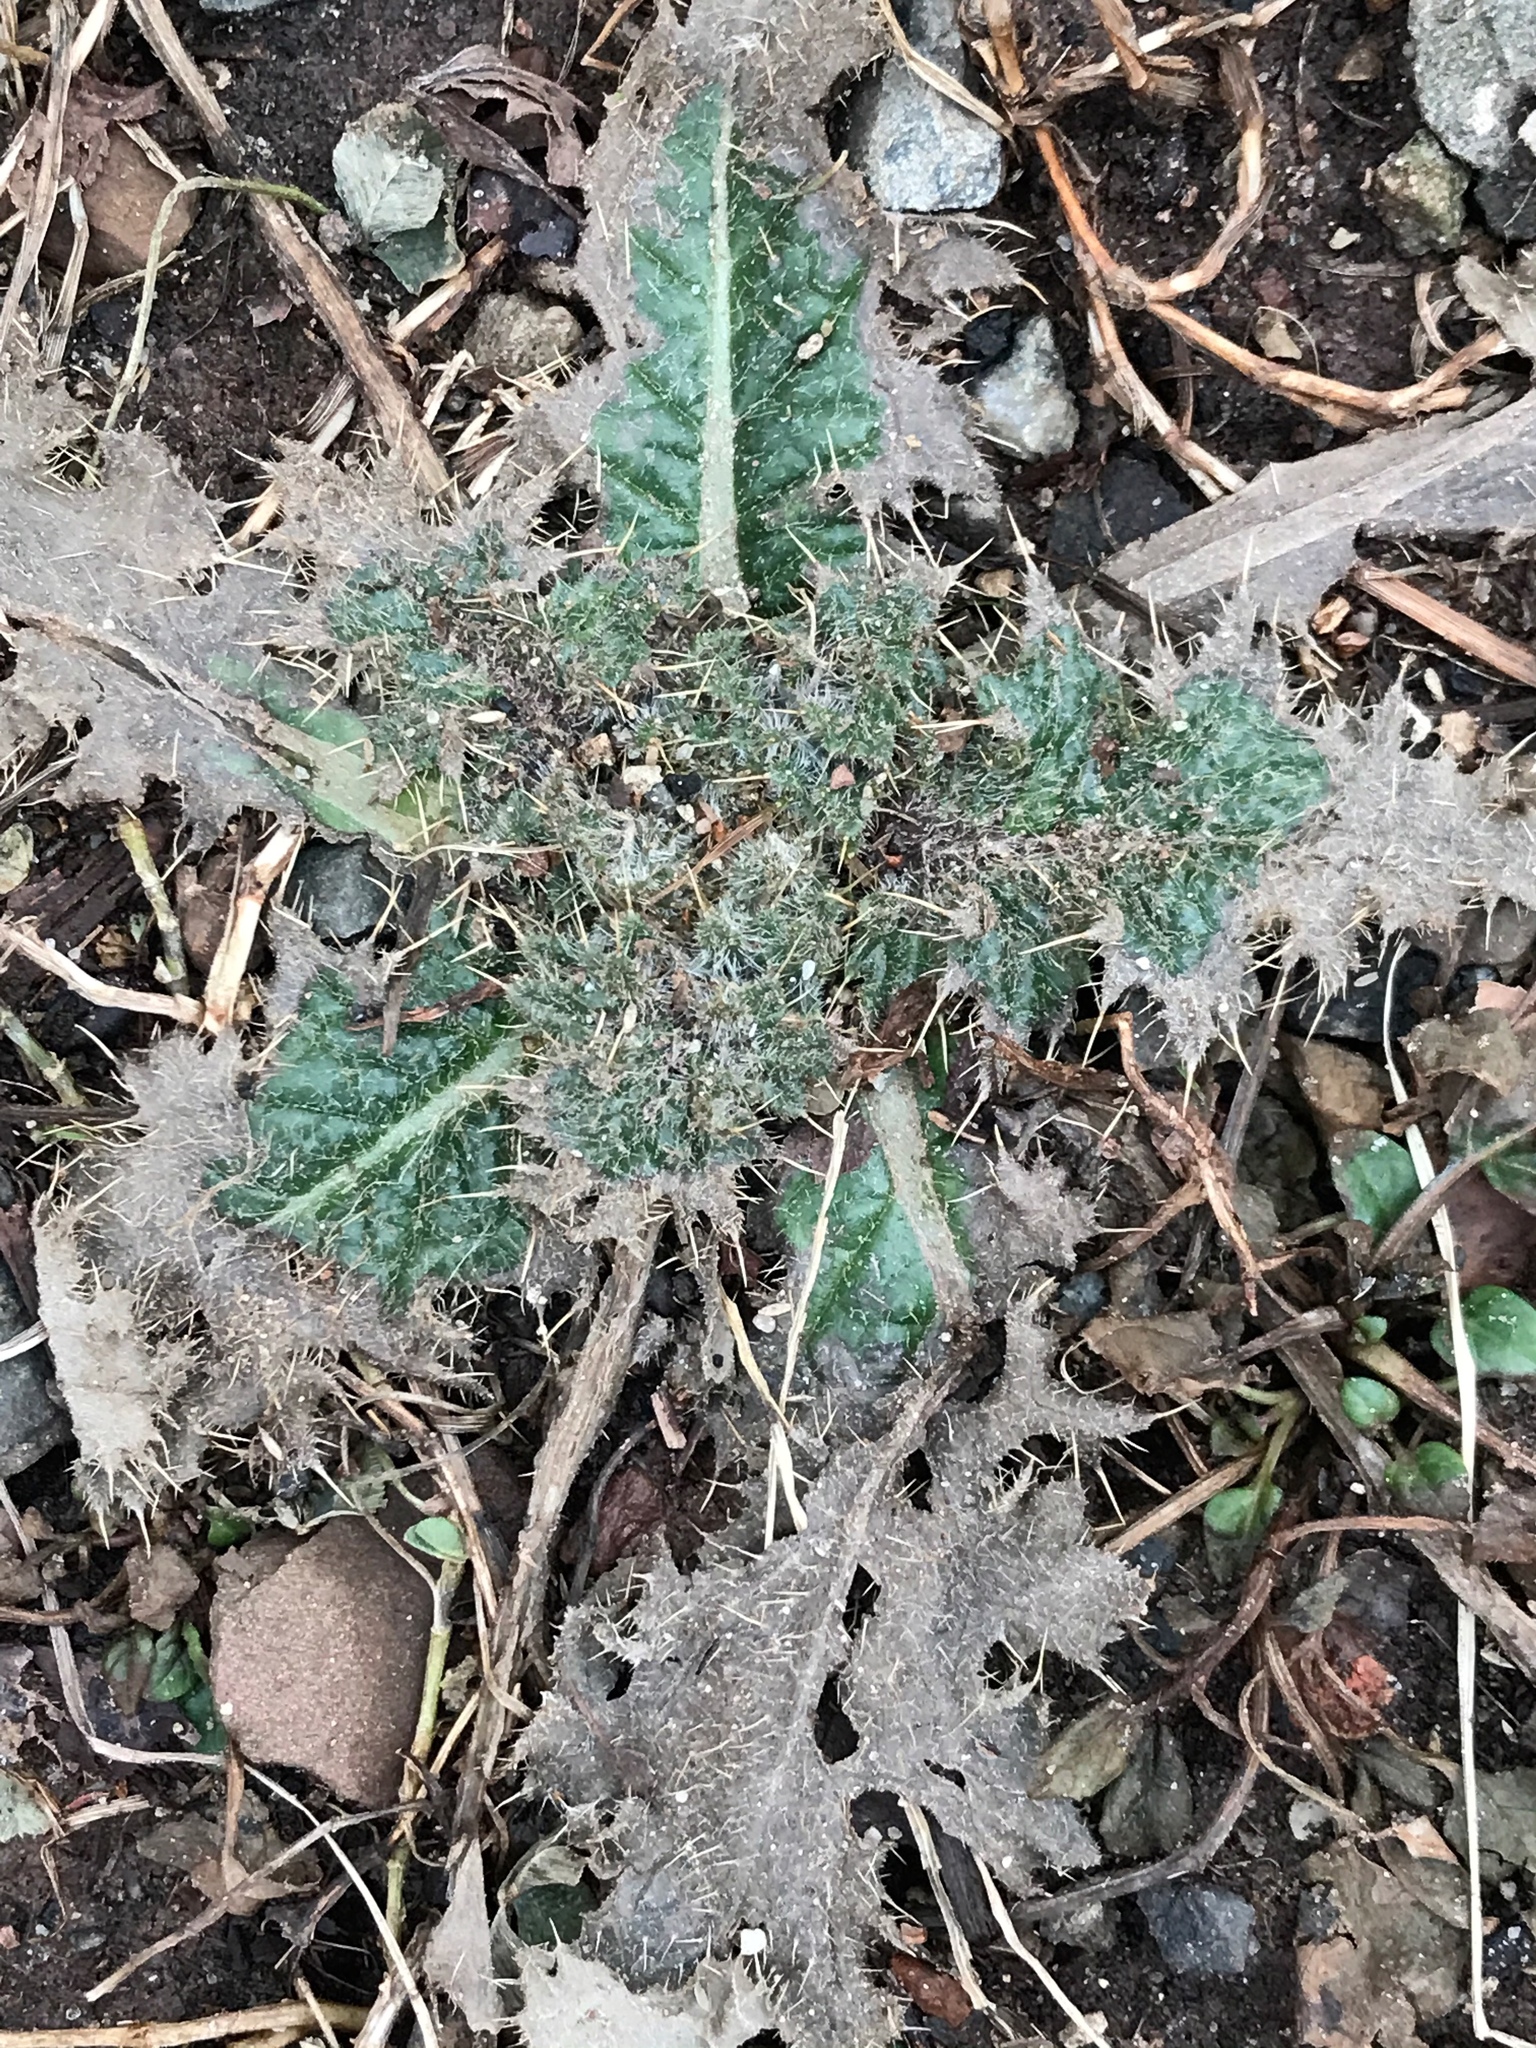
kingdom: Plantae
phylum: Tracheophyta
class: Magnoliopsida
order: Asterales
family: Asteraceae
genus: Cirsium
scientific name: Cirsium vulgare
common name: Bull thistle
